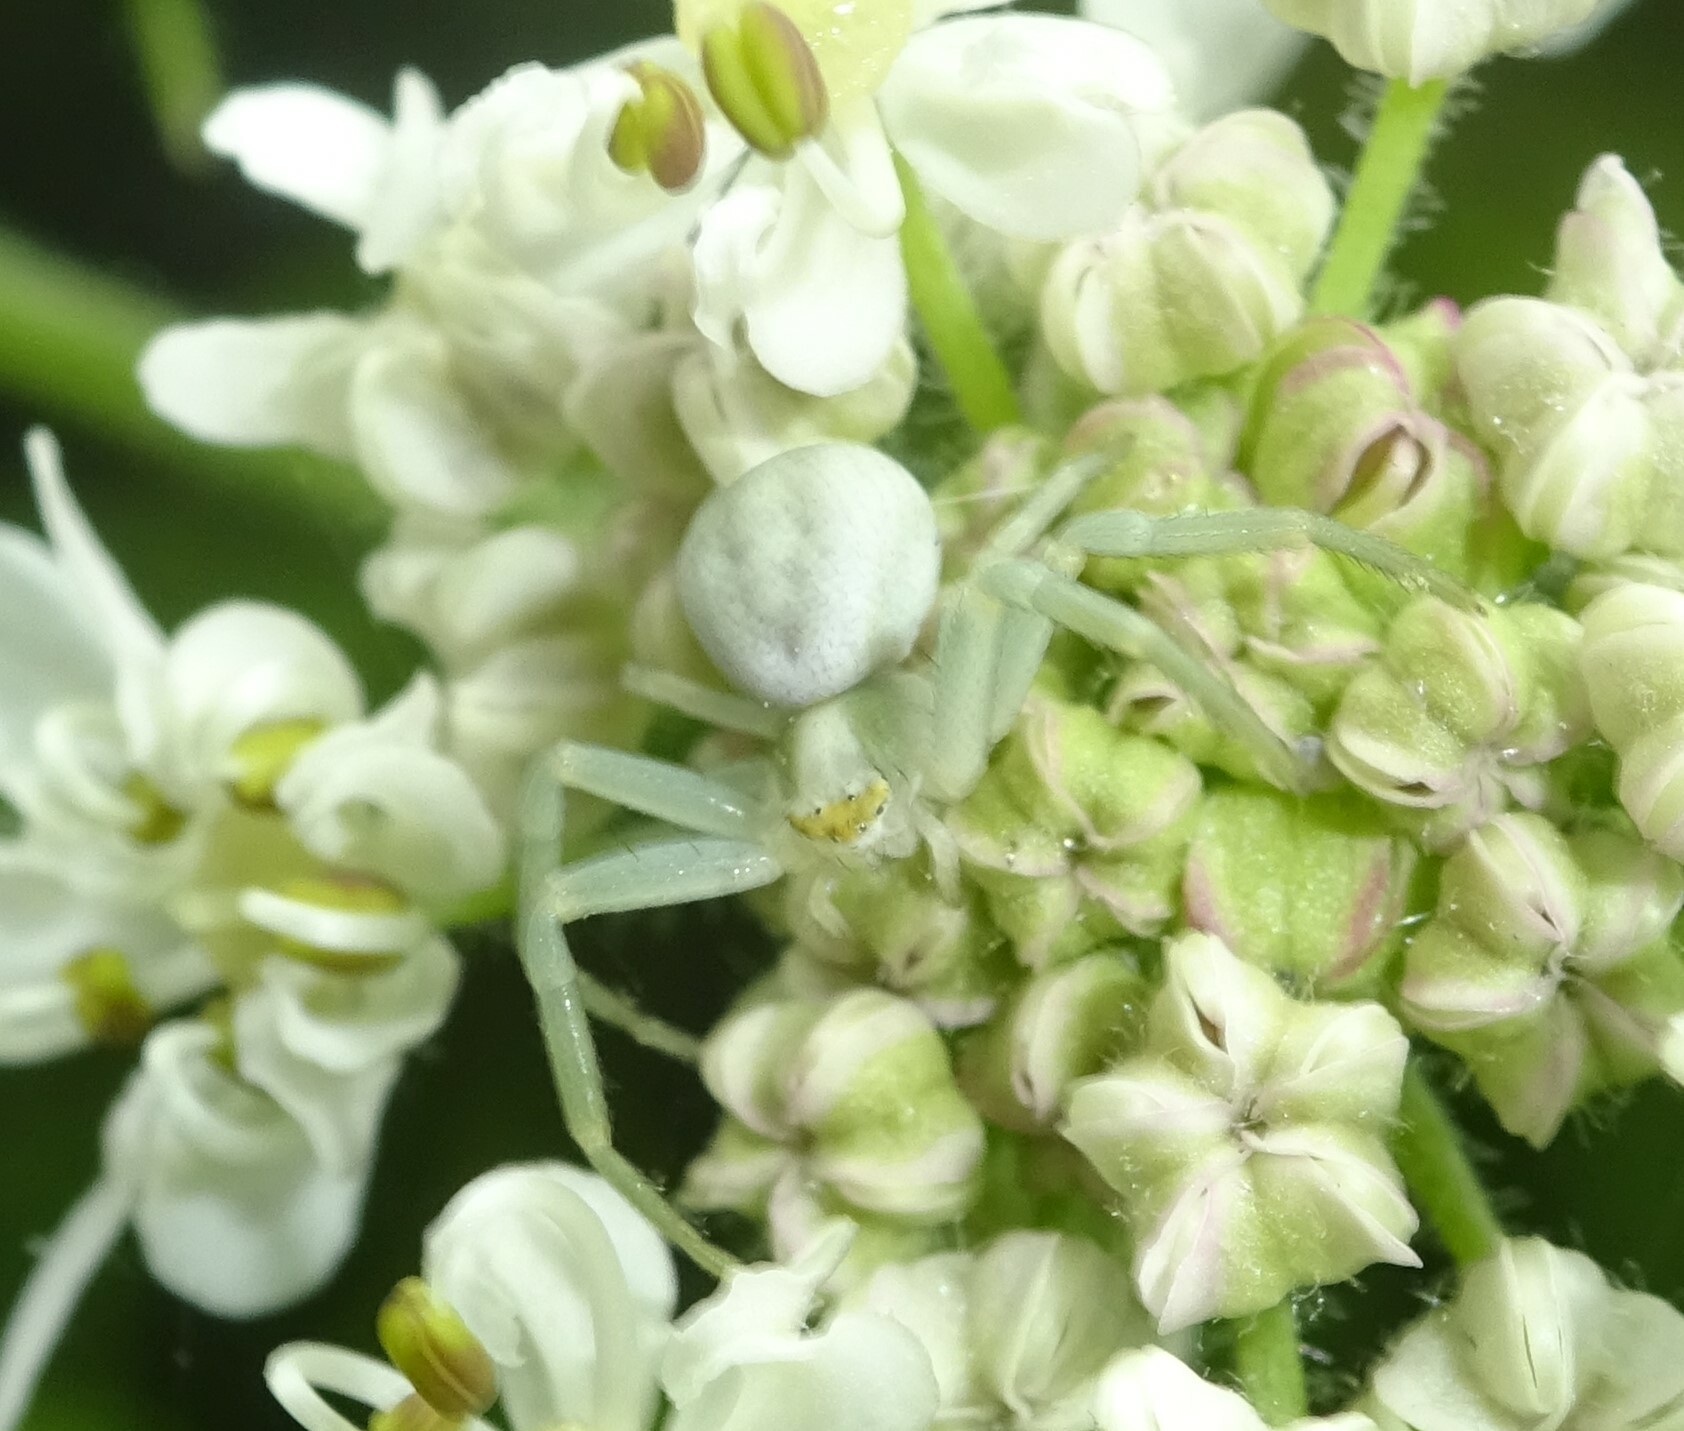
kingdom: Animalia
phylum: Arthropoda
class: Arachnida
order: Araneae
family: Thomisidae
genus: Misumena
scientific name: Misumena vatia
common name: Goldenrod crab spider
